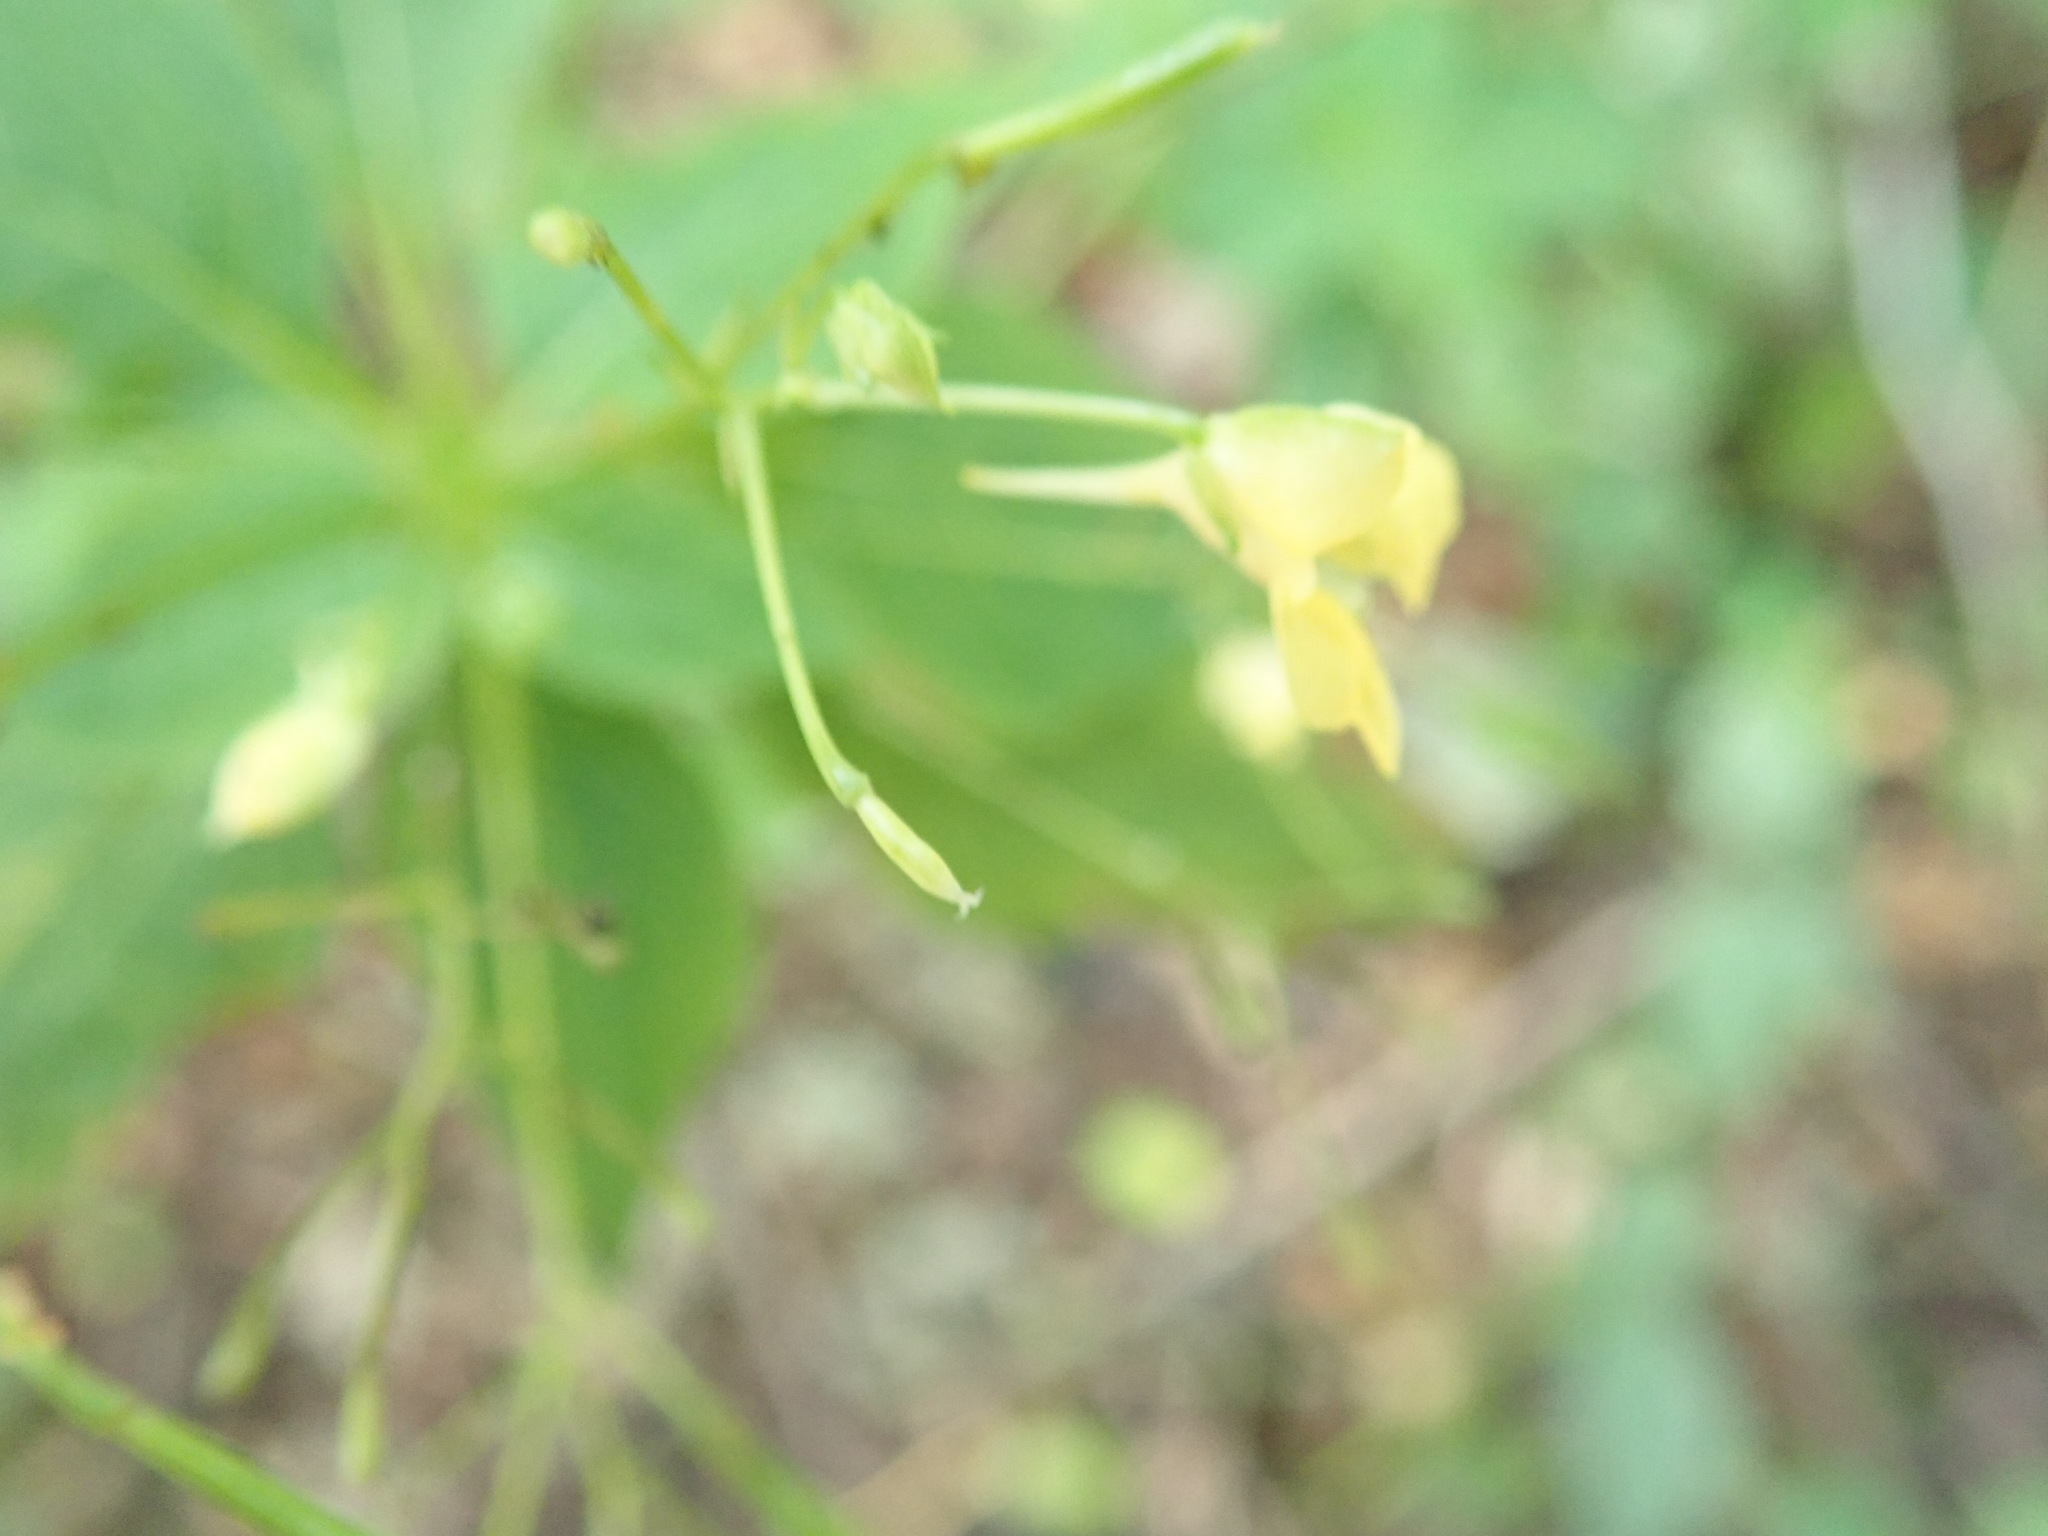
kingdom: Plantae
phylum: Tracheophyta
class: Magnoliopsida
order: Ericales
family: Balsaminaceae
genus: Impatiens
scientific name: Impatiens parviflora
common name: Small balsam
